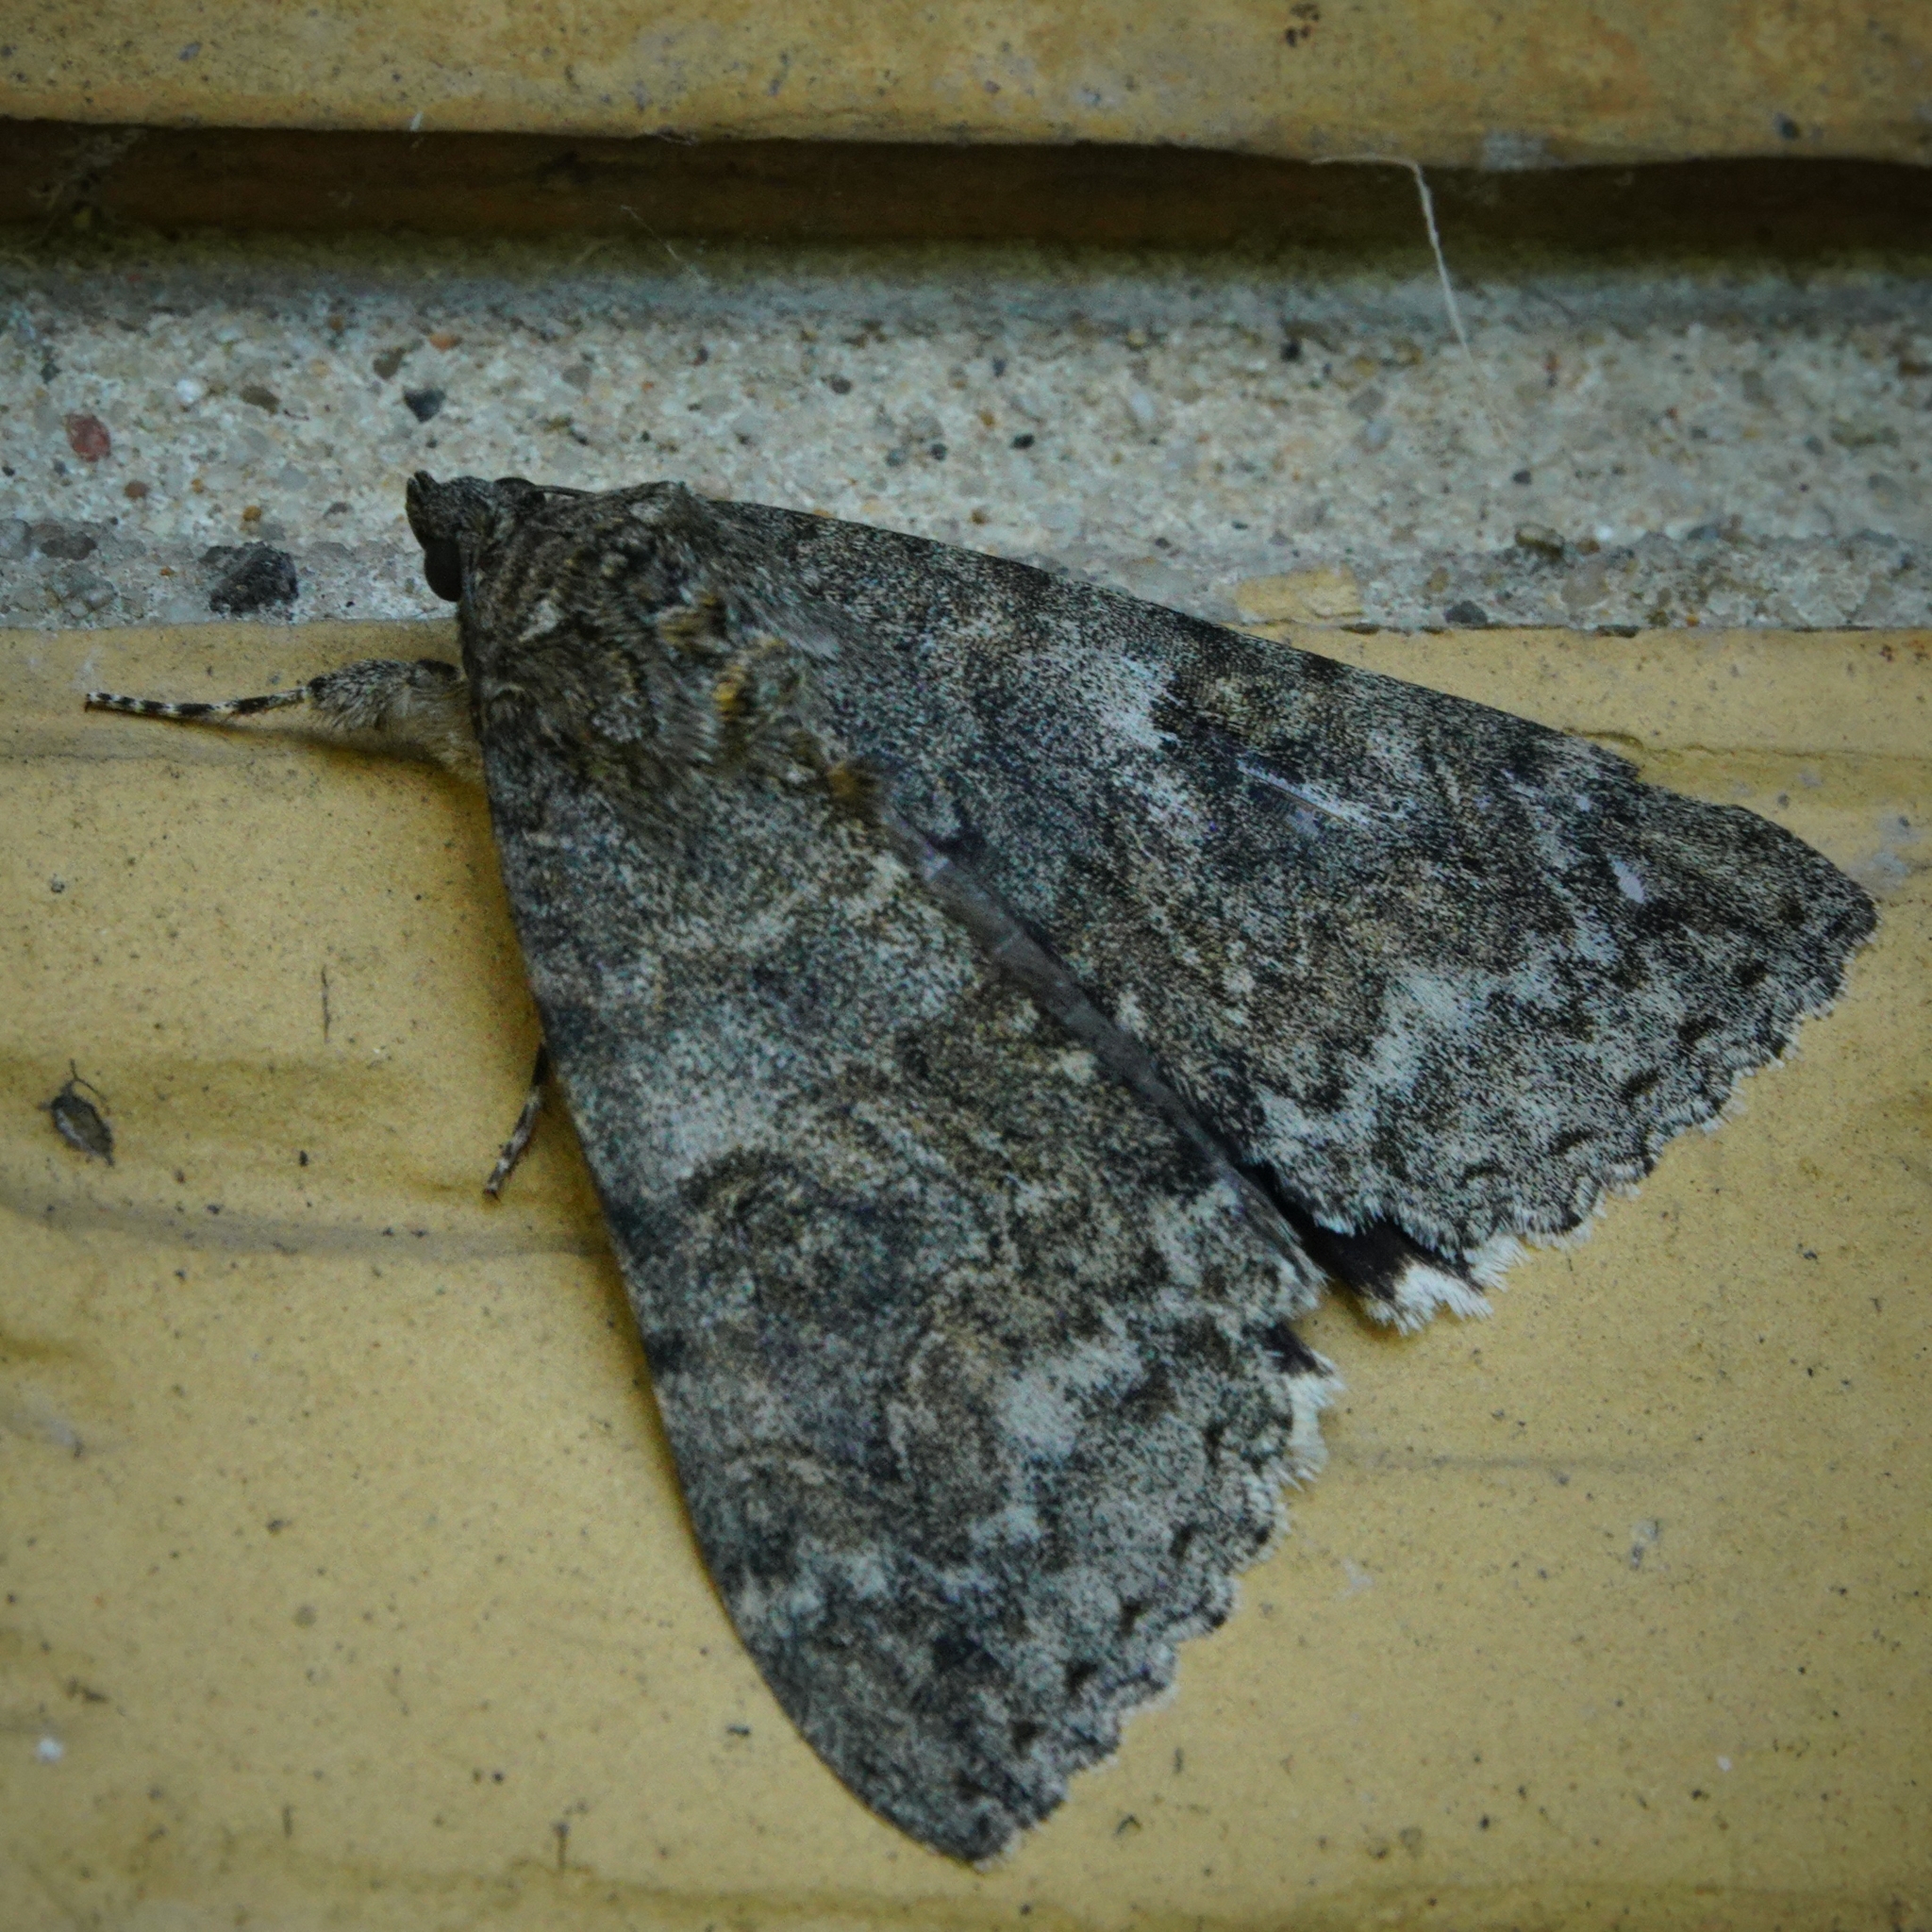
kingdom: Animalia
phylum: Arthropoda
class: Insecta
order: Lepidoptera
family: Erebidae
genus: Catocala
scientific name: Catocala nupta
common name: Red underwing
